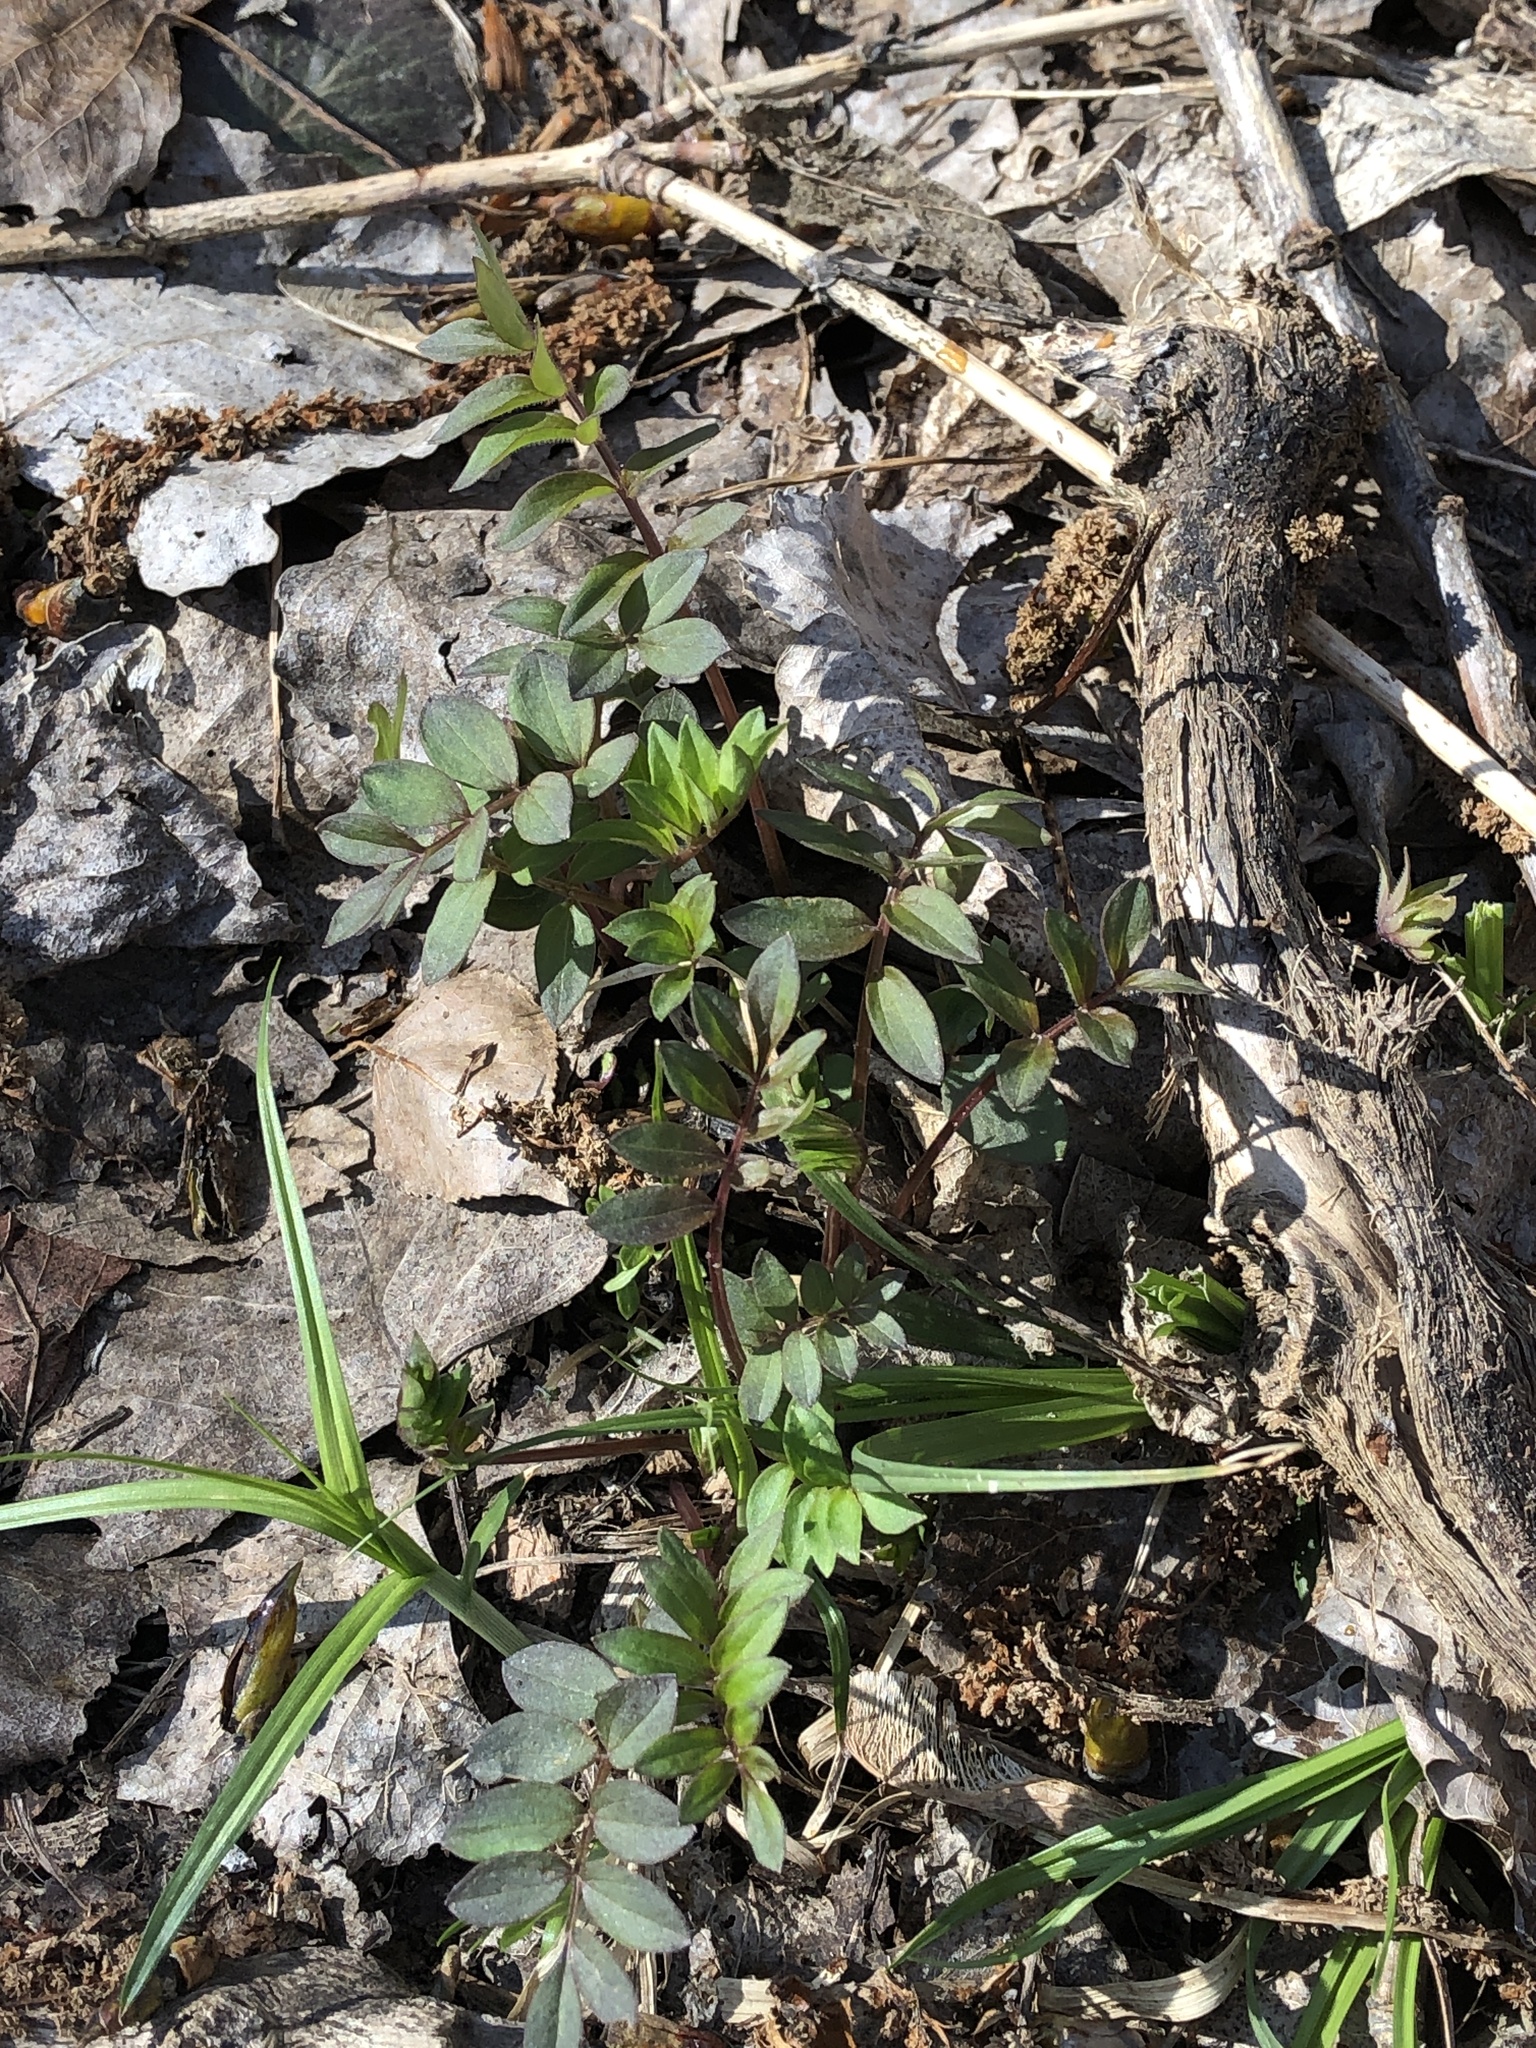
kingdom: Plantae
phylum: Tracheophyta
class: Magnoliopsida
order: Ericales
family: Polemoniaceae
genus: Polemonium
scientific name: Polemonium reptans
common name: Creeping jacob's-ladder
